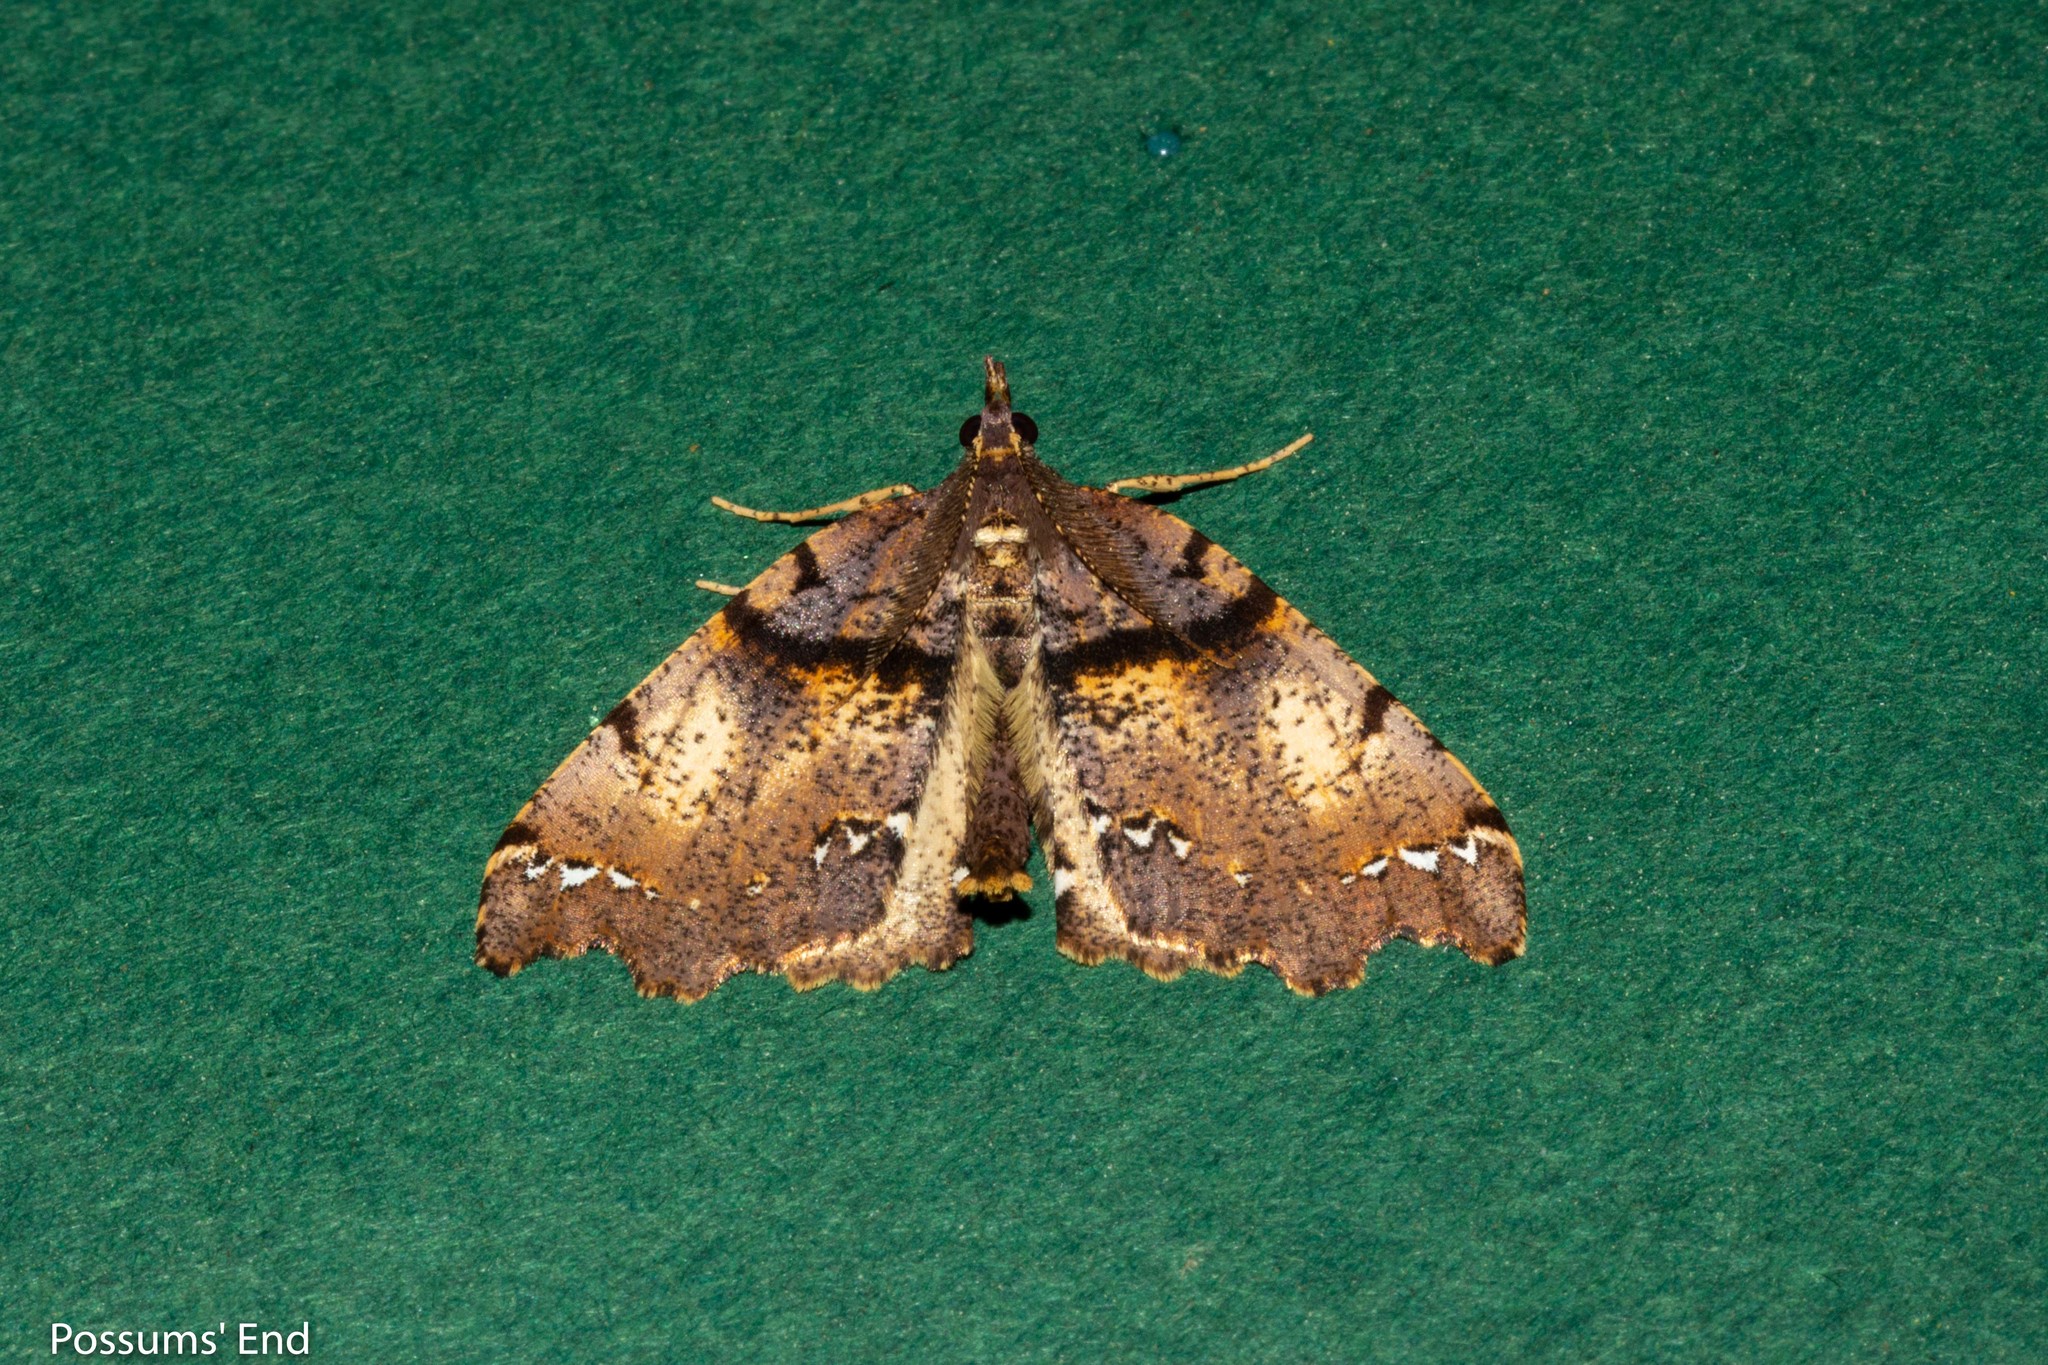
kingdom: Animalia
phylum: Arthropoda
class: Insecta
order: Lepidoptera
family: Geometridae
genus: Chalastra
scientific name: Chalastra pellurgata
